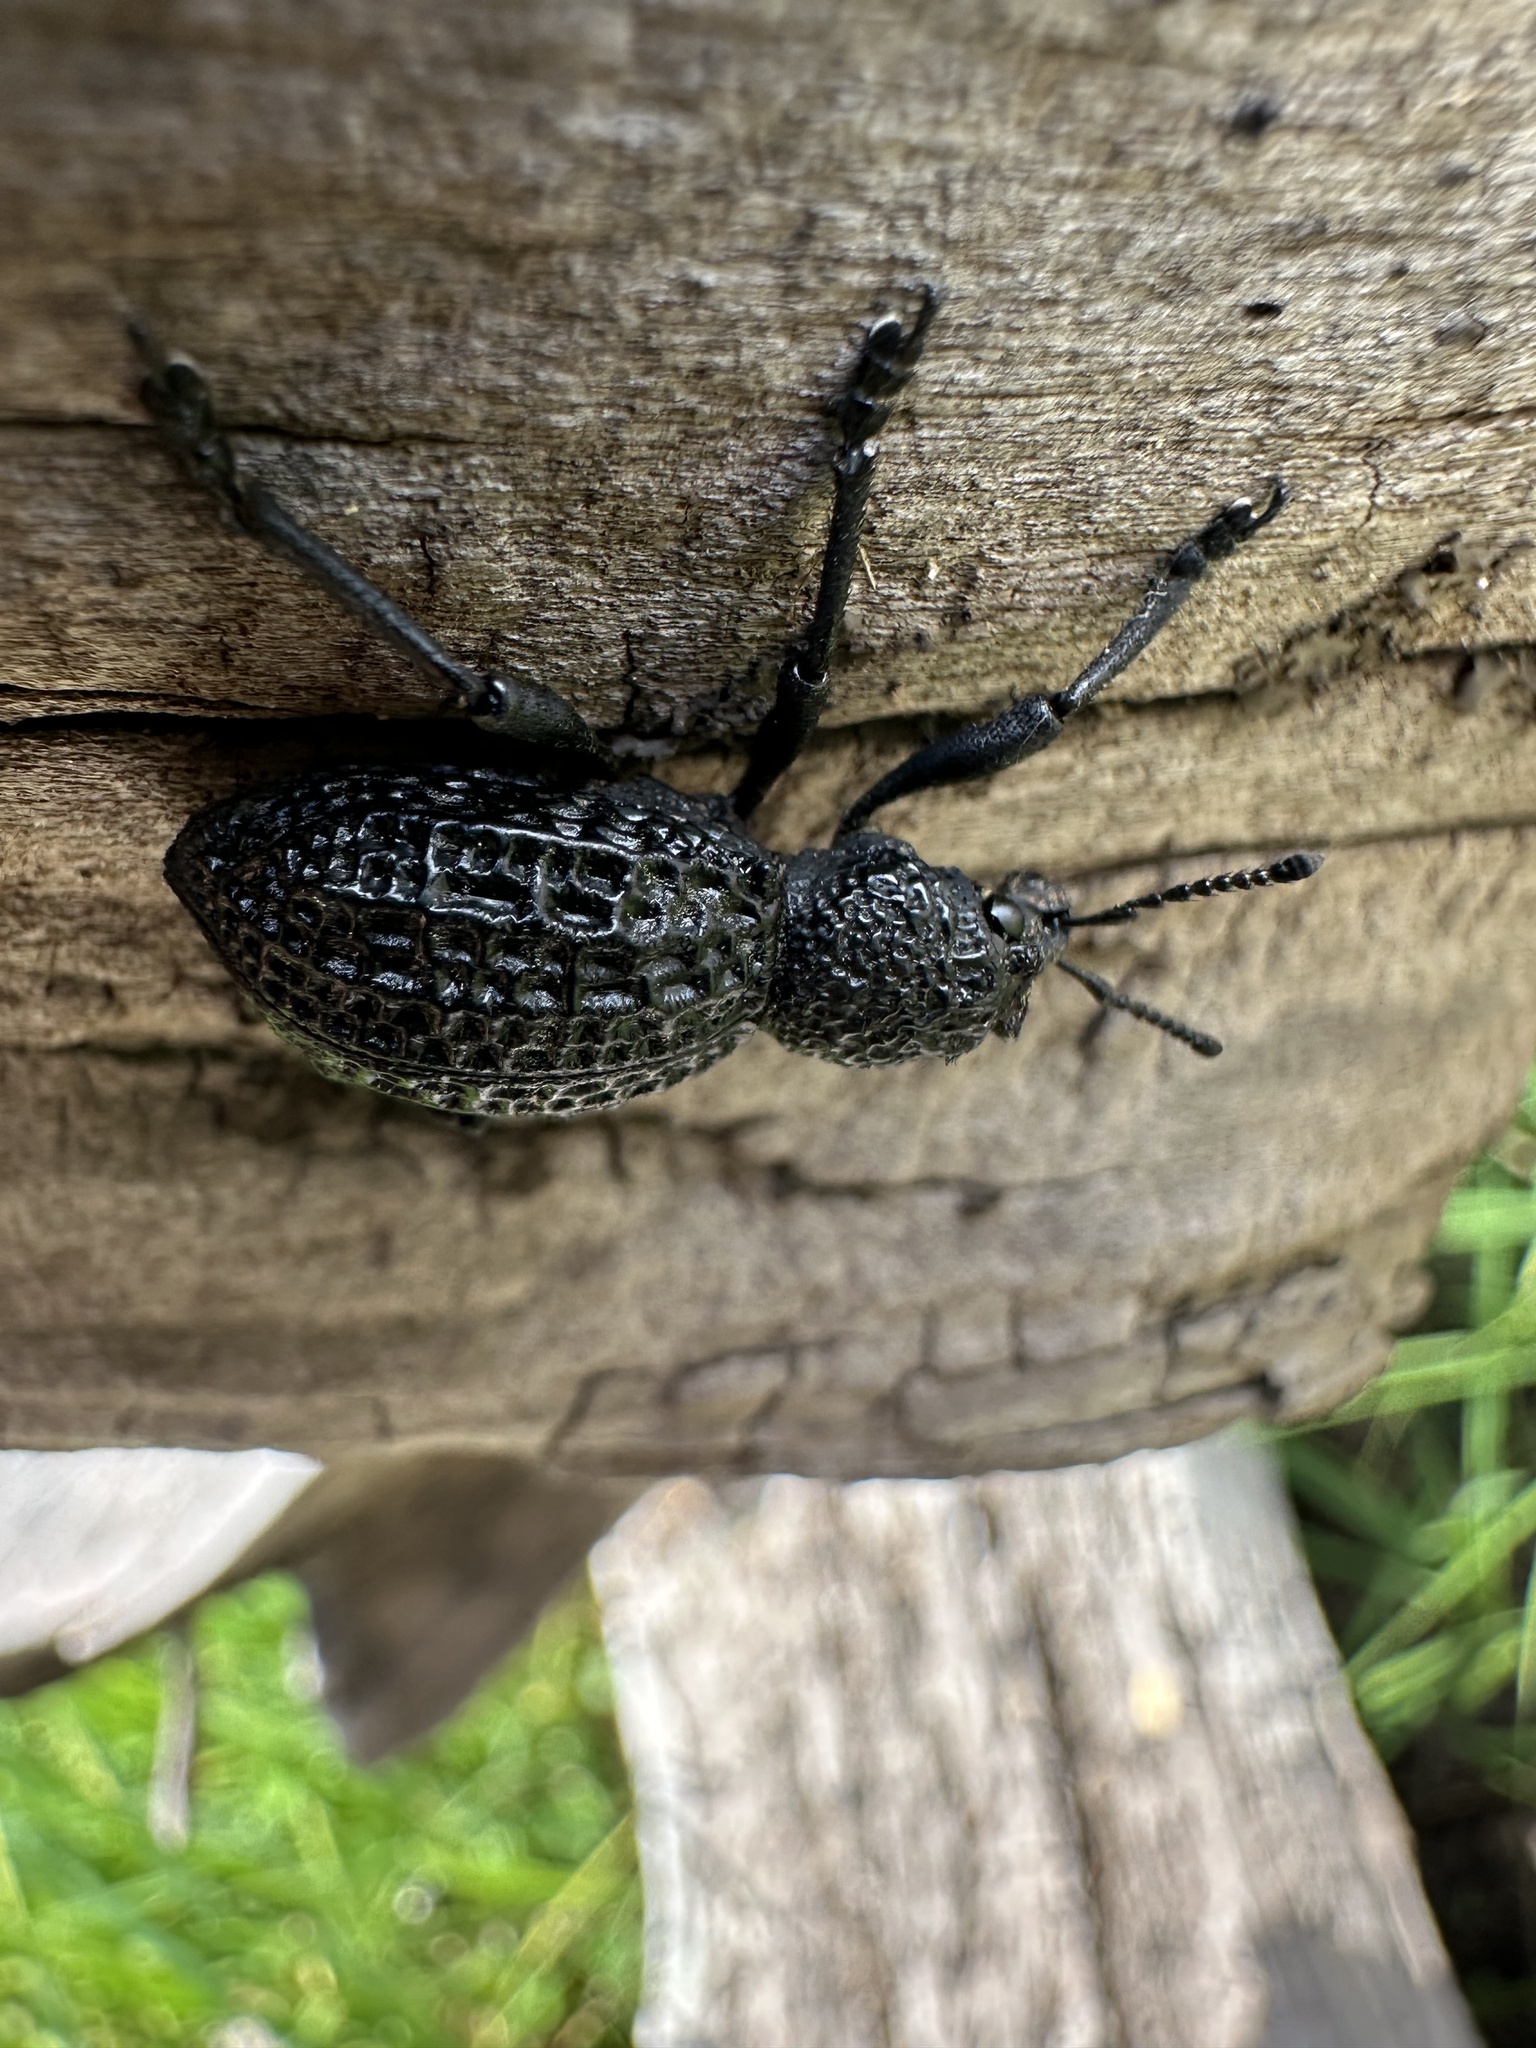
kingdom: Animalia
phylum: Arthropoda
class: Insecta
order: Coleoptera
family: Curculionidae
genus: Aegorhinus
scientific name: Aegorhinus superciliosus
